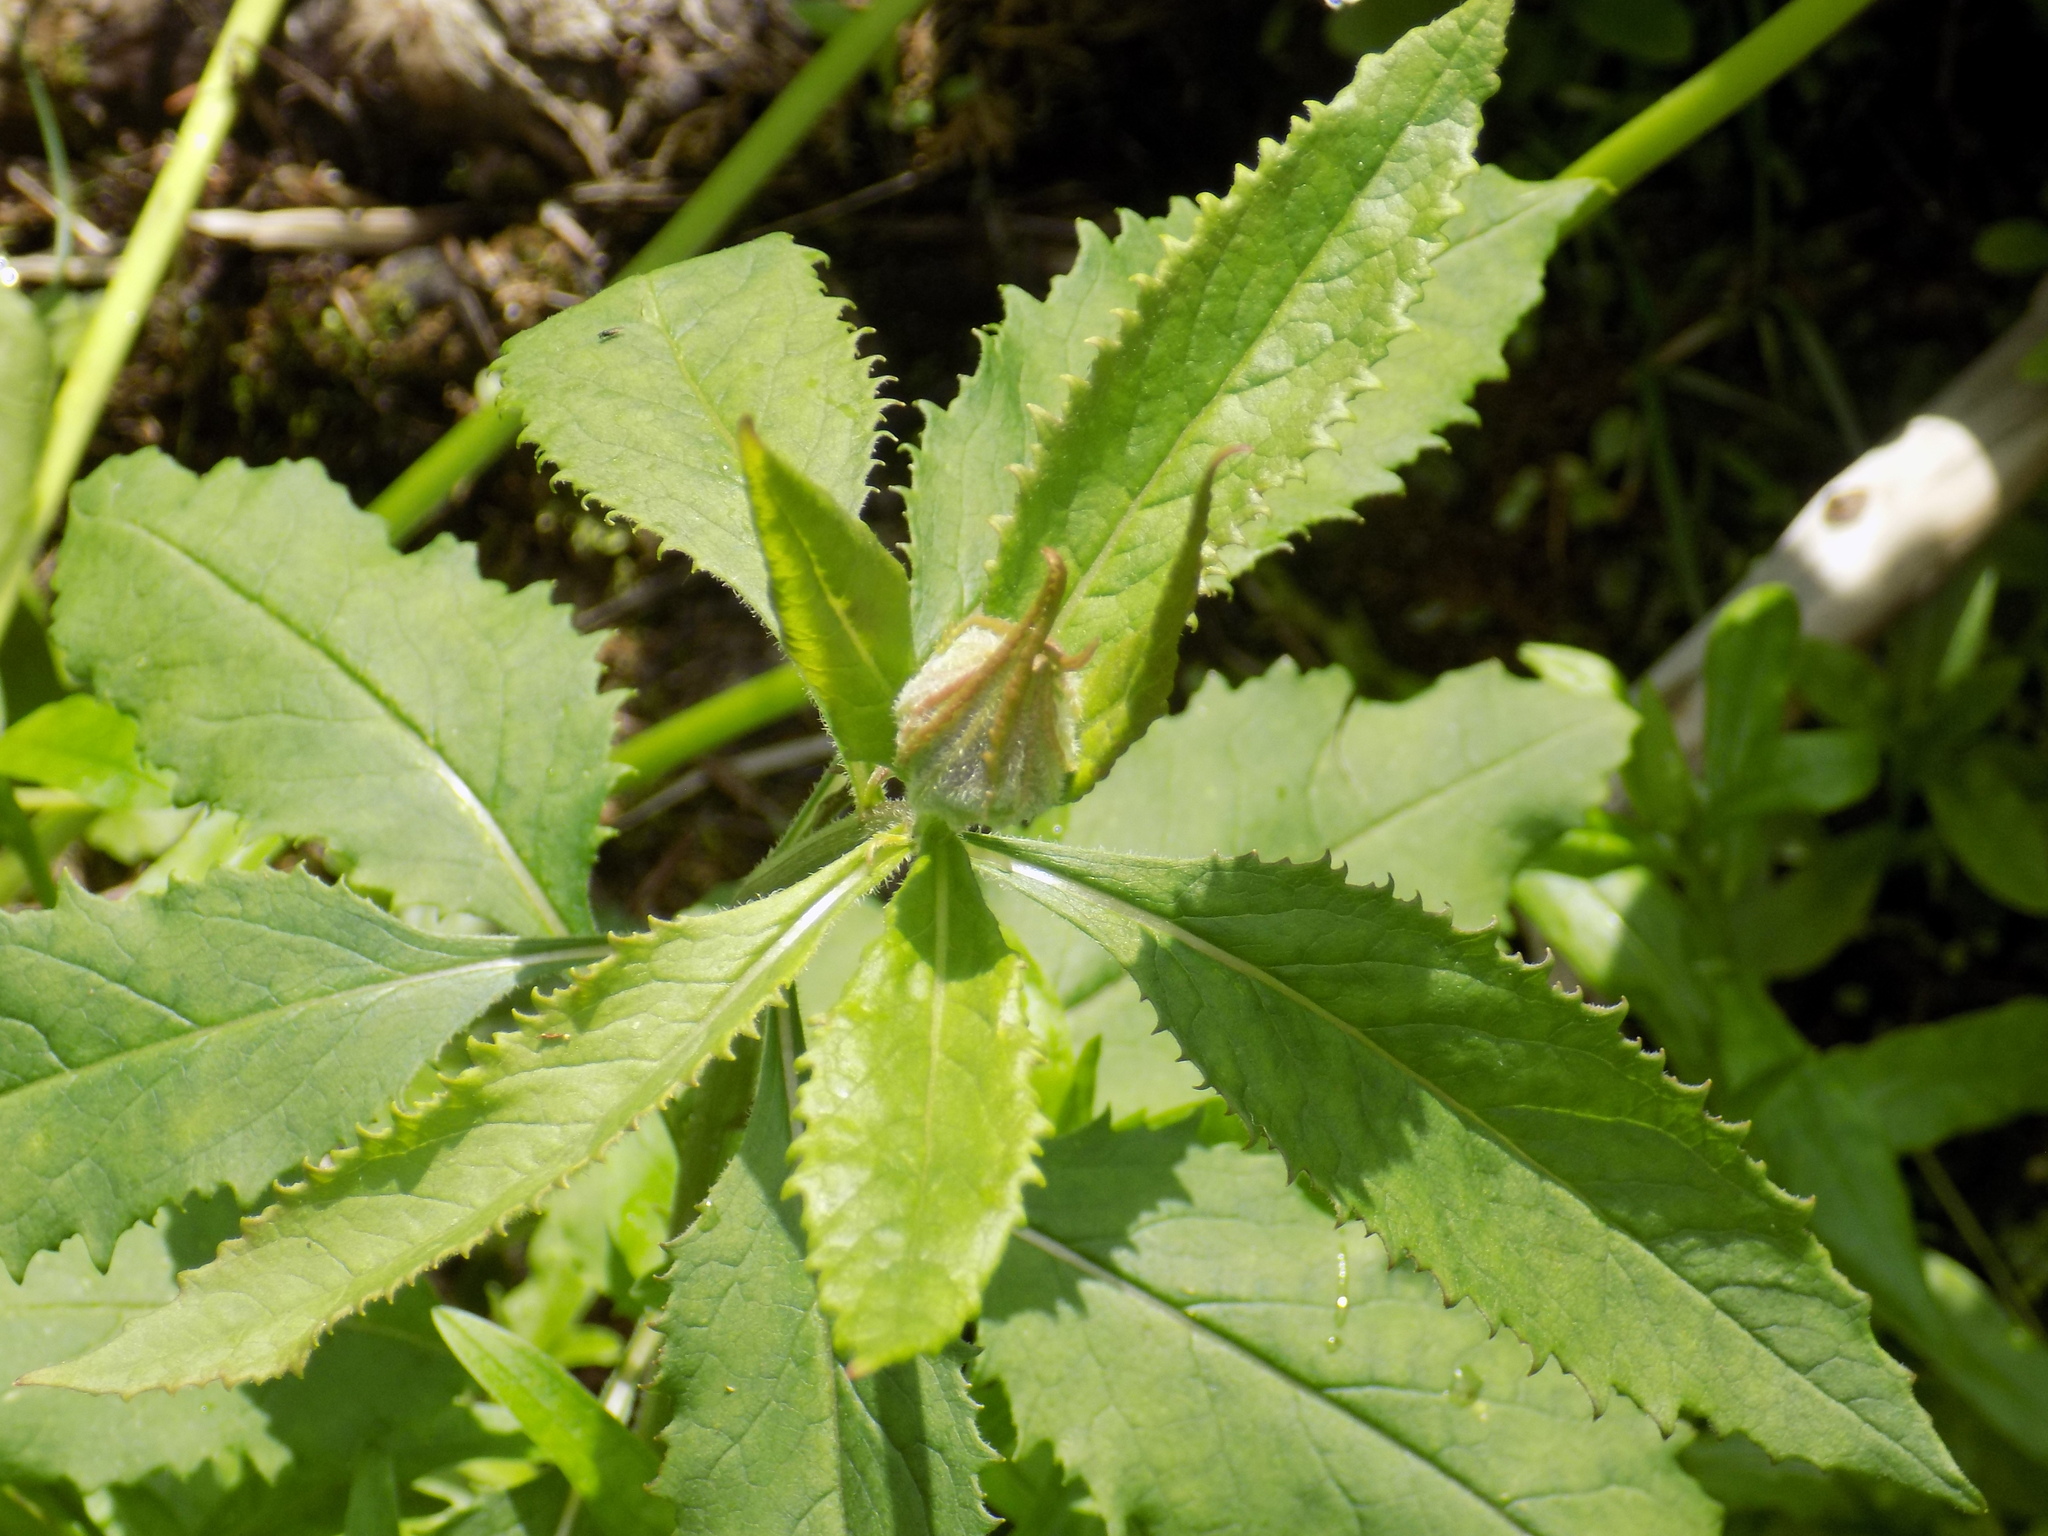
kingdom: Plantae
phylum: Tracheophyta
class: Magnoliopsida
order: Asterales
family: Asteraceae
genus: Senecio
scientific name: Senecio nemorensis
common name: Alpine ragwort
